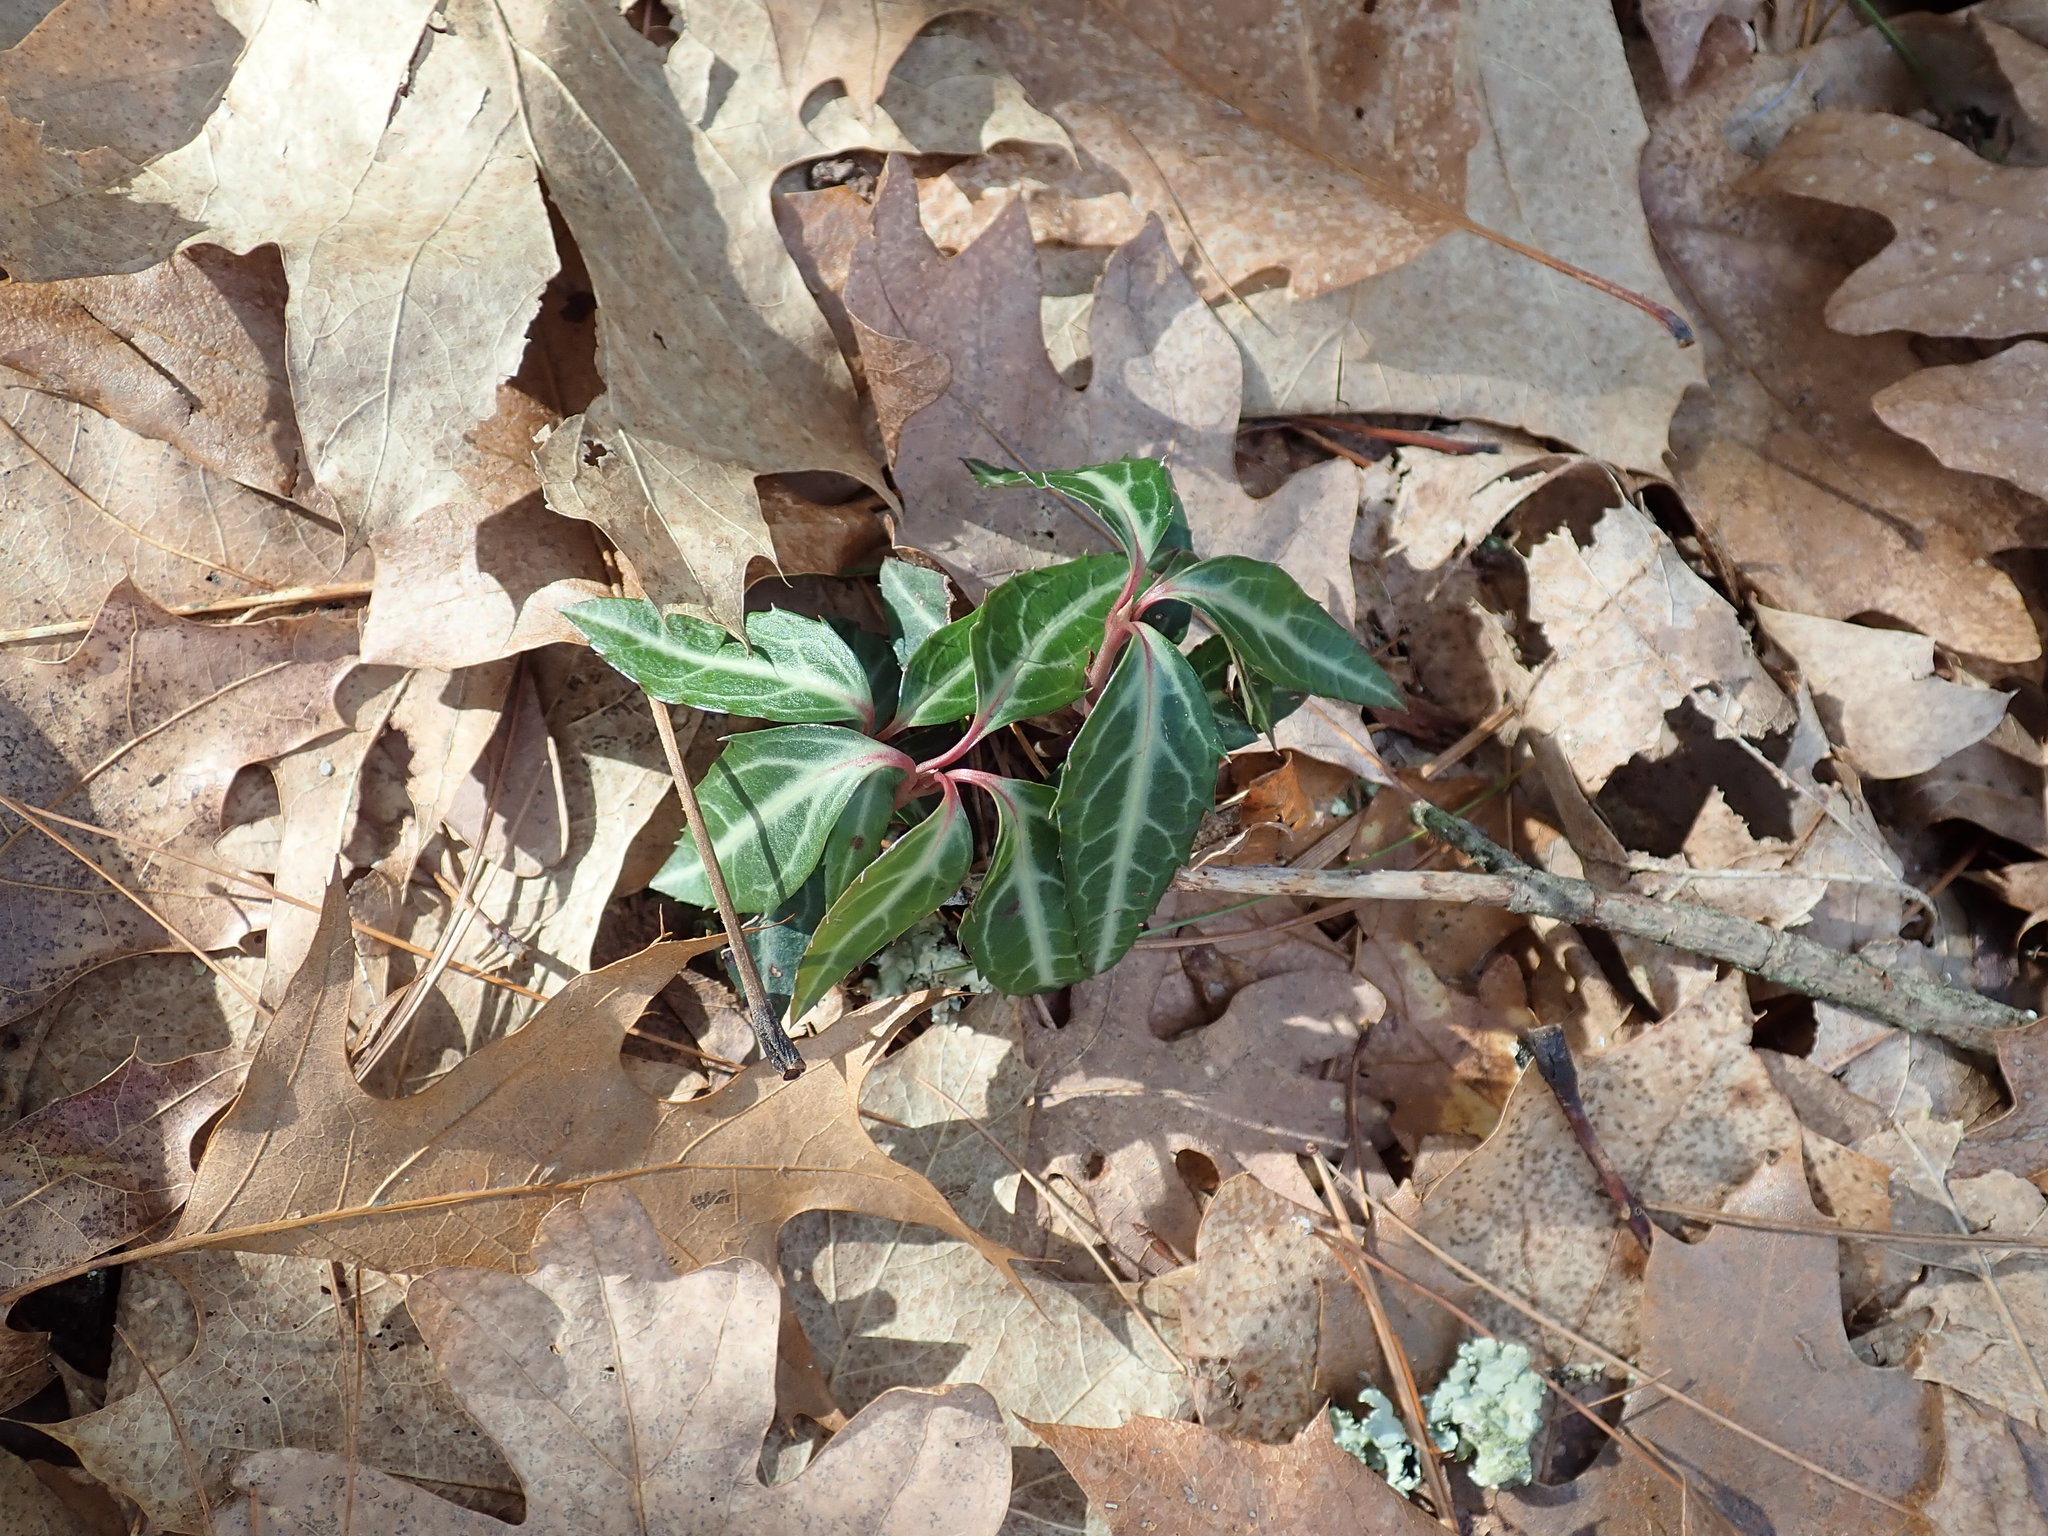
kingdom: Plantae
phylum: Tracheophyta
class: Magnoliopsida
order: Ericales
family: Ericaceae
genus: Chimaphila
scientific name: Chimaphila maculata
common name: Spotted pipsissewa
